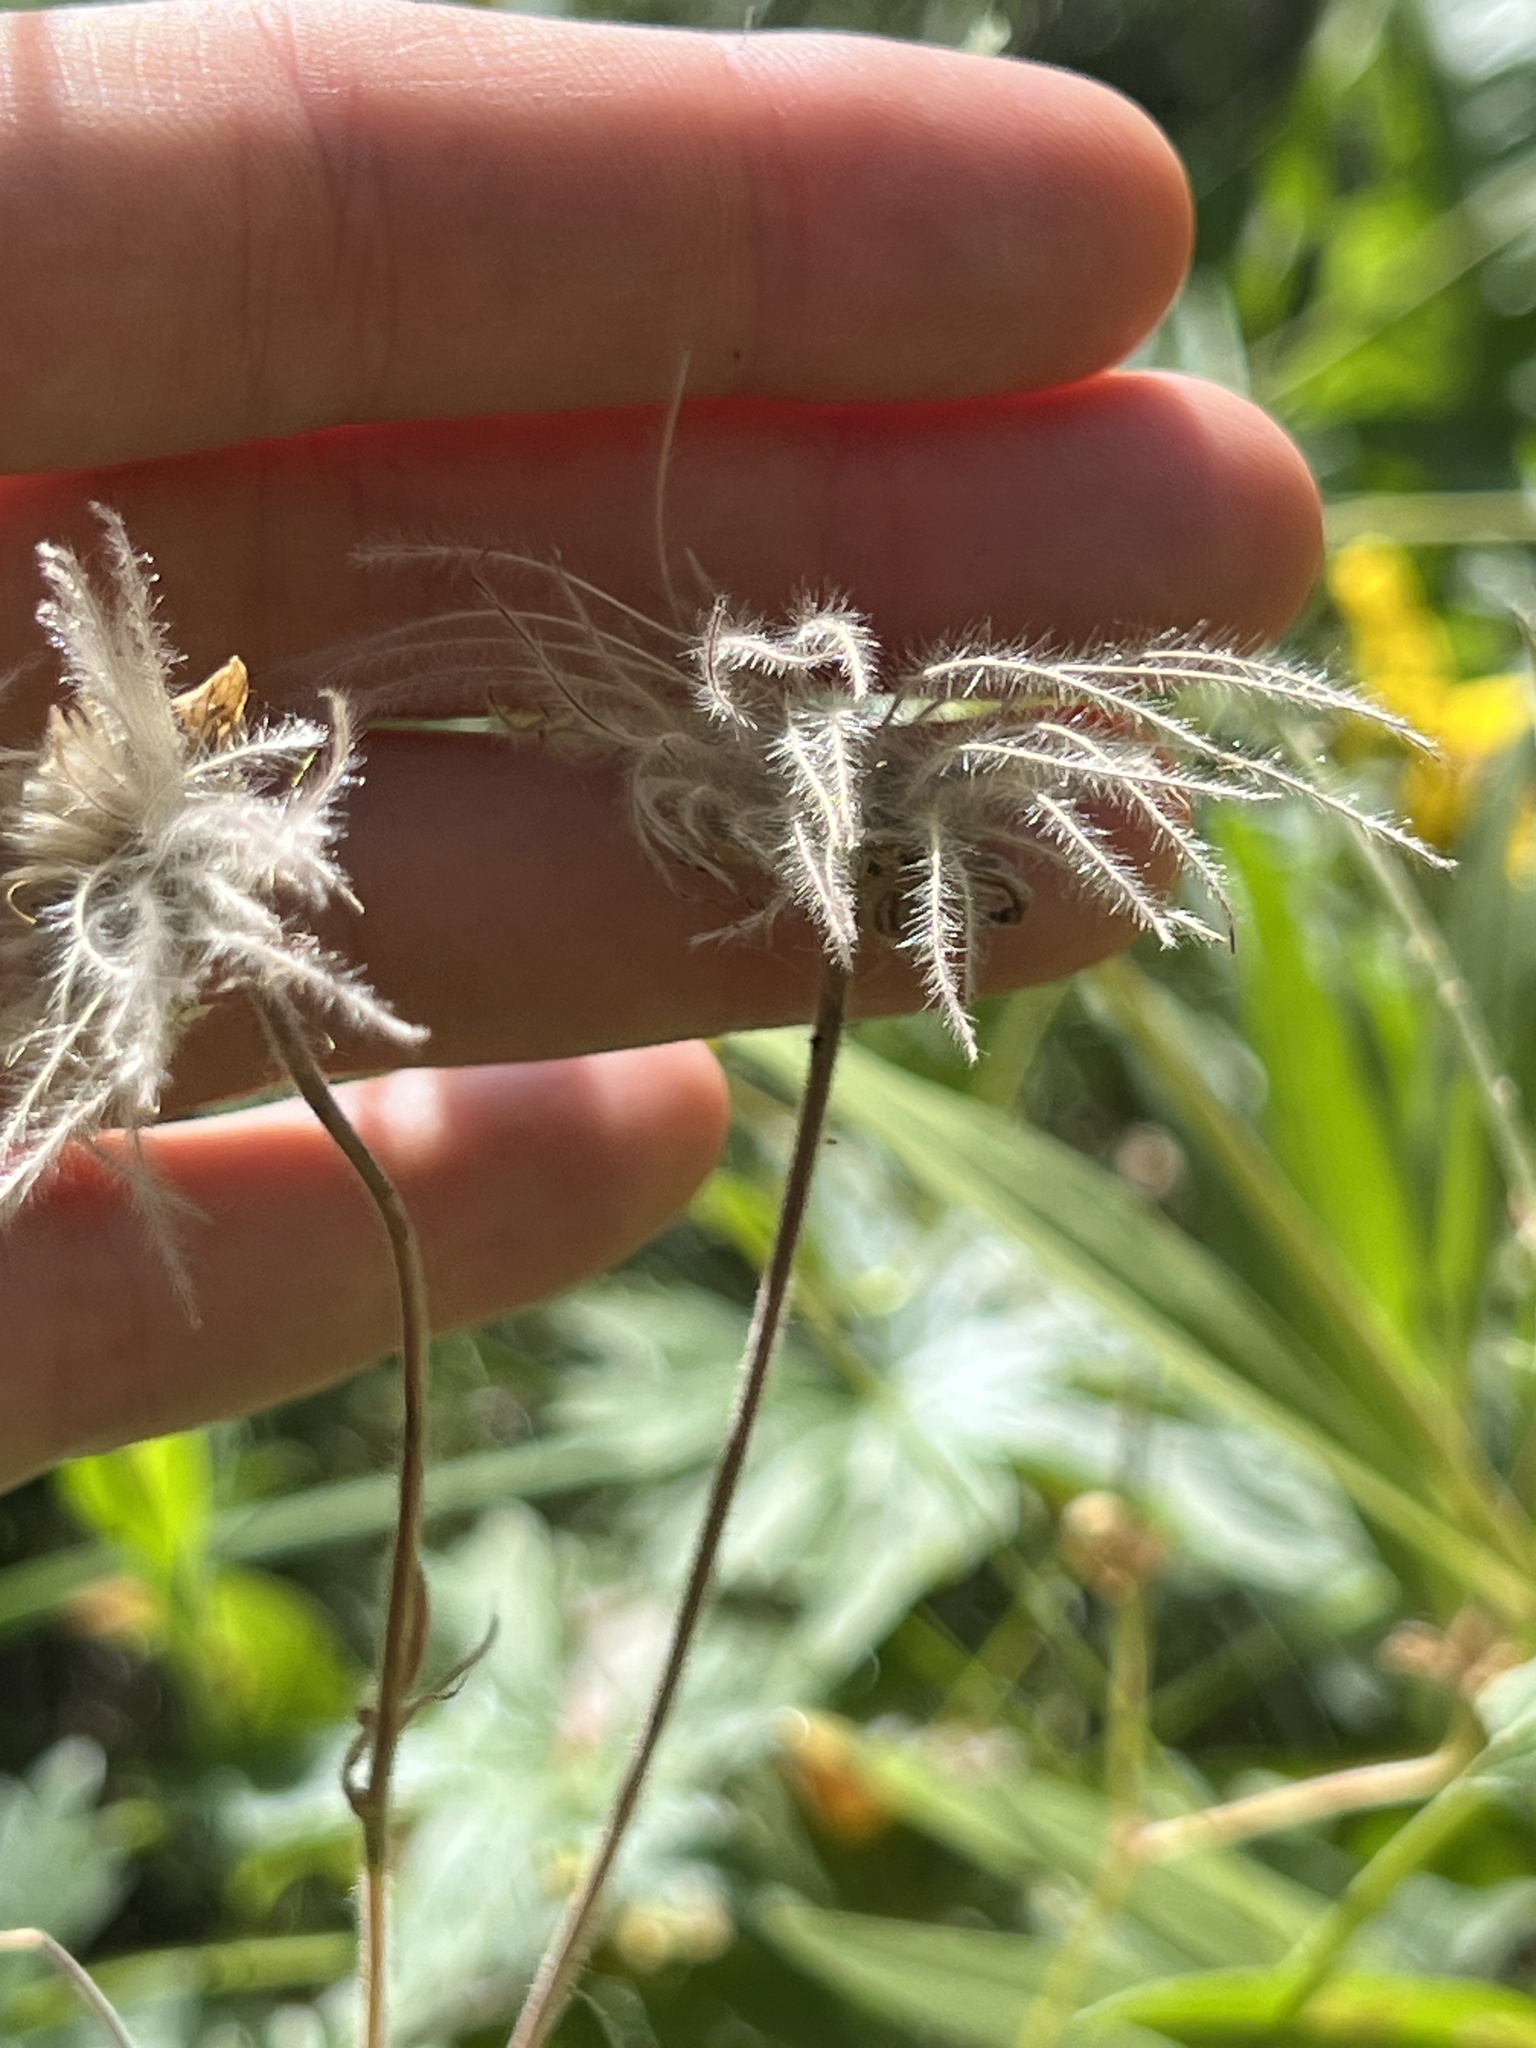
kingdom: Plantae
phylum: Tracheophyta
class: Magnoliopsida
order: Rosales
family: Rosaceae
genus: Geum
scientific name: Geum triflorum
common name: Old man's whiskers
